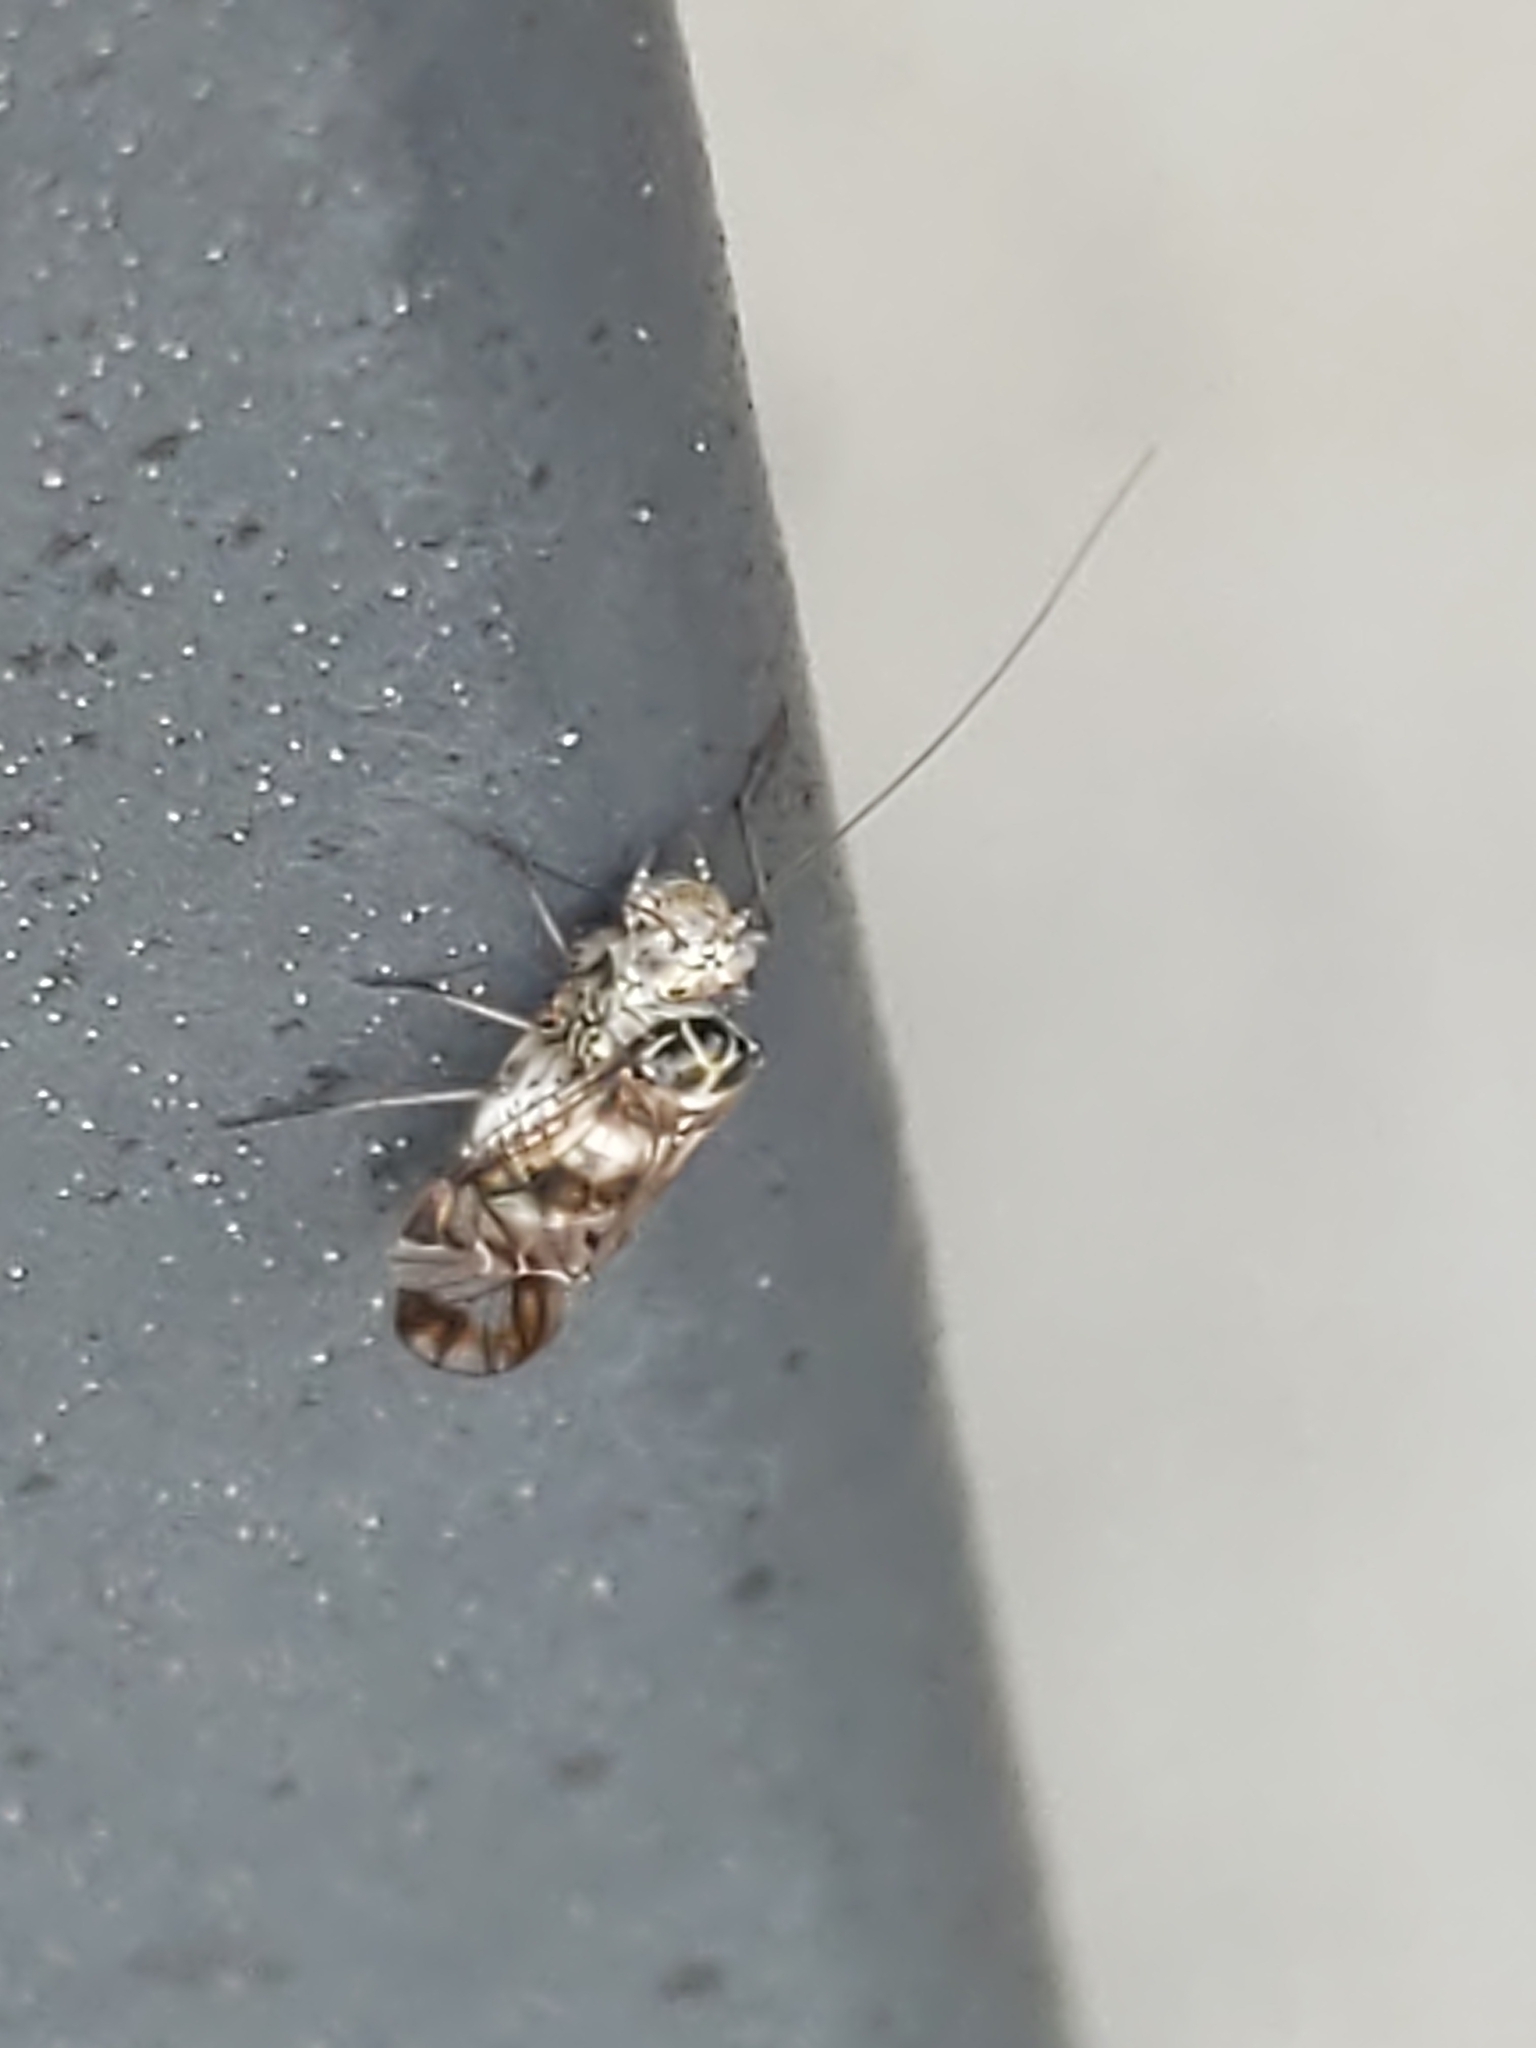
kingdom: Animalia
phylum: Arthropoda
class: Insecta
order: Psocodea
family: Psocidae
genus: Metylophorus
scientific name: Metylophorus novaescotiae
